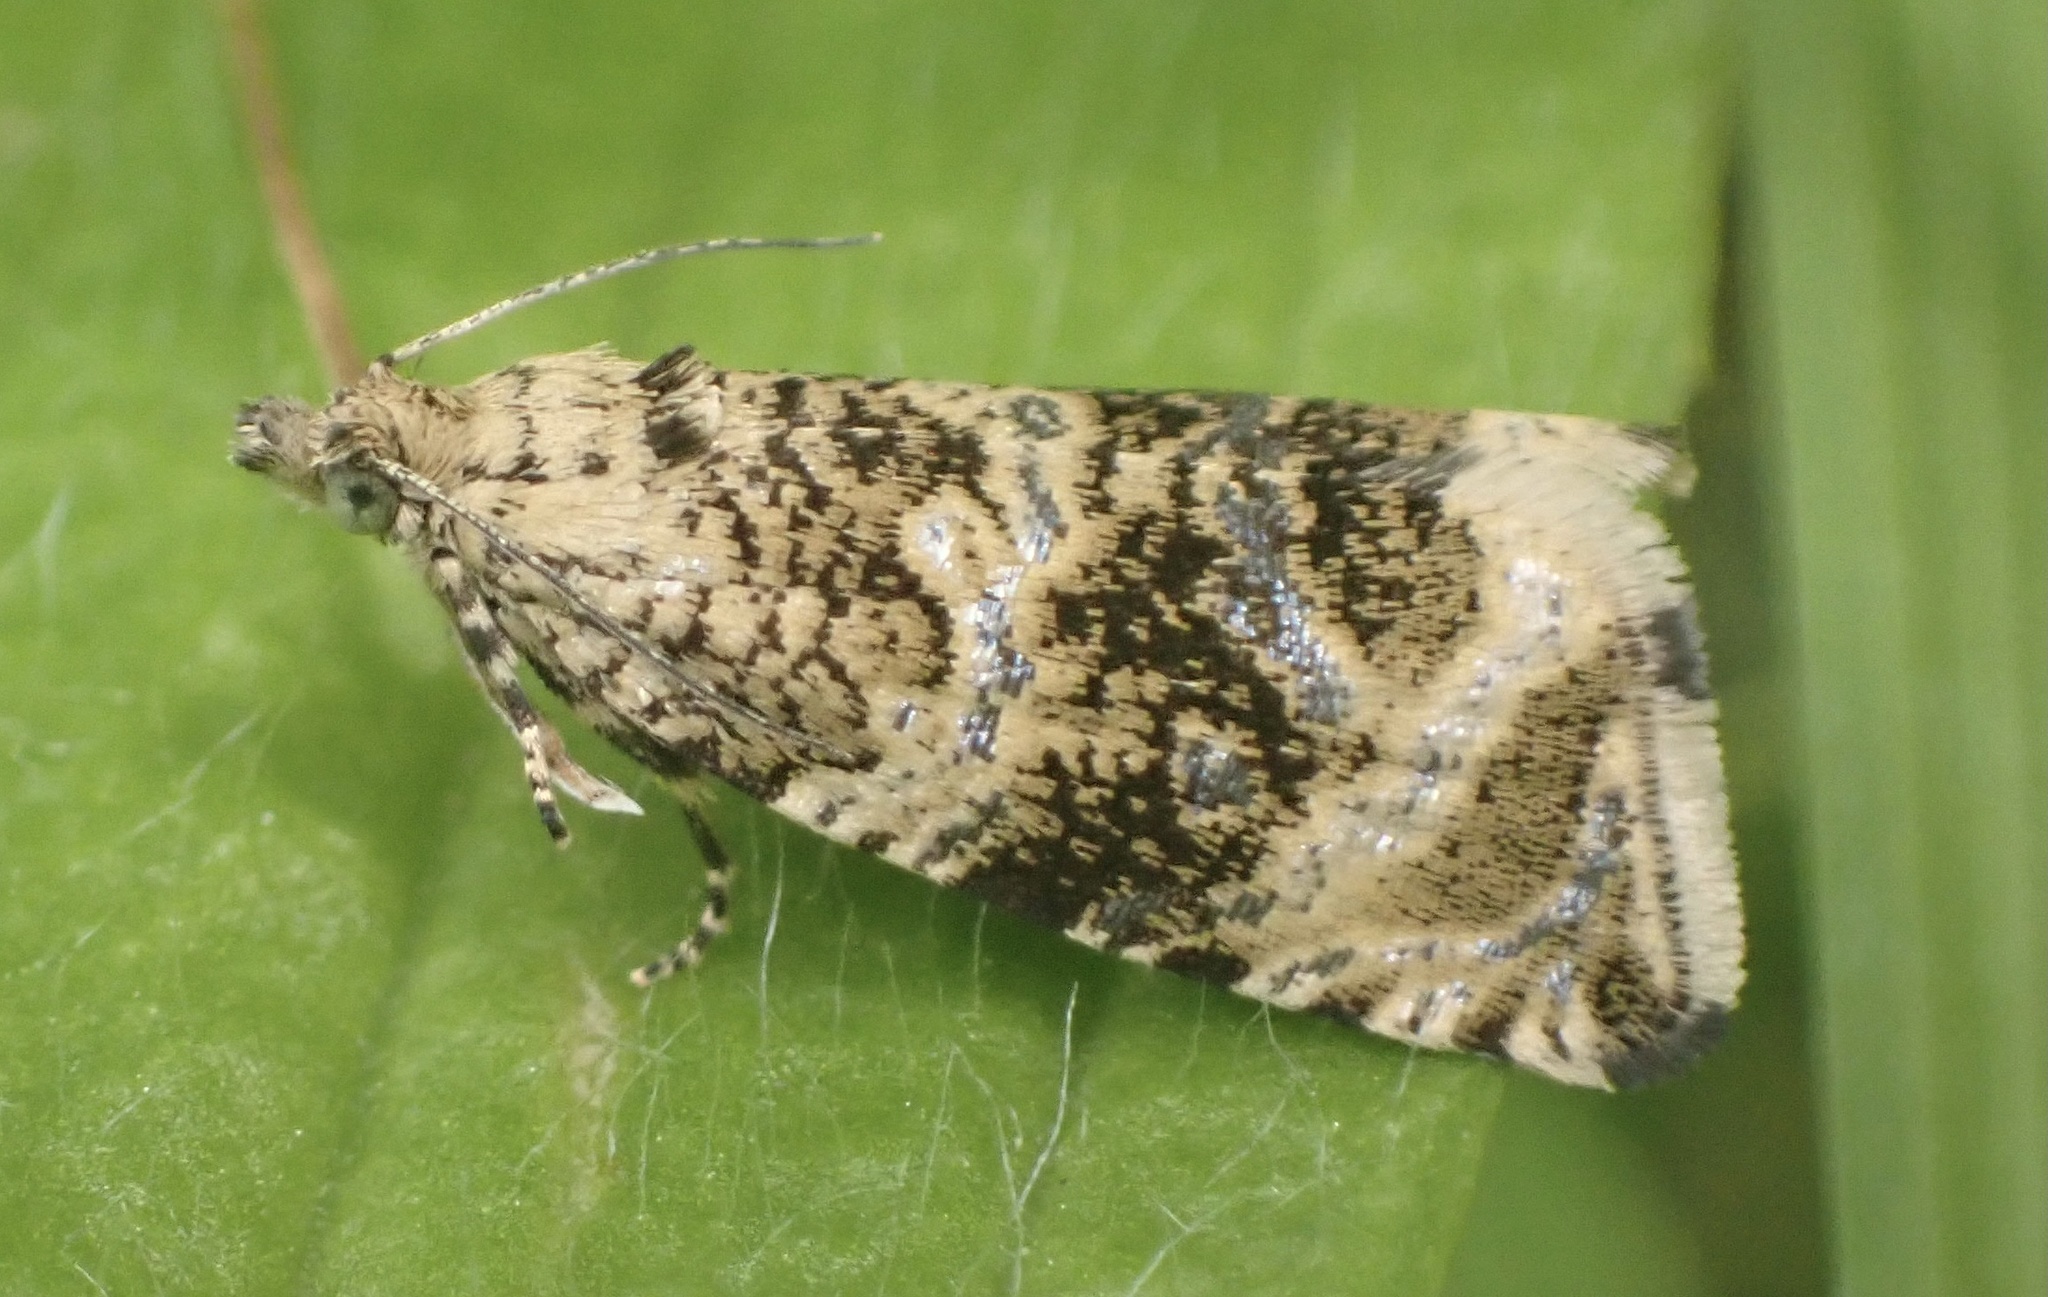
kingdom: Animalia
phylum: Arthropoda
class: Insecta
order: Lepidoptera
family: Tortricidae
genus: Syricoris
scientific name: Syricoris lacunana
